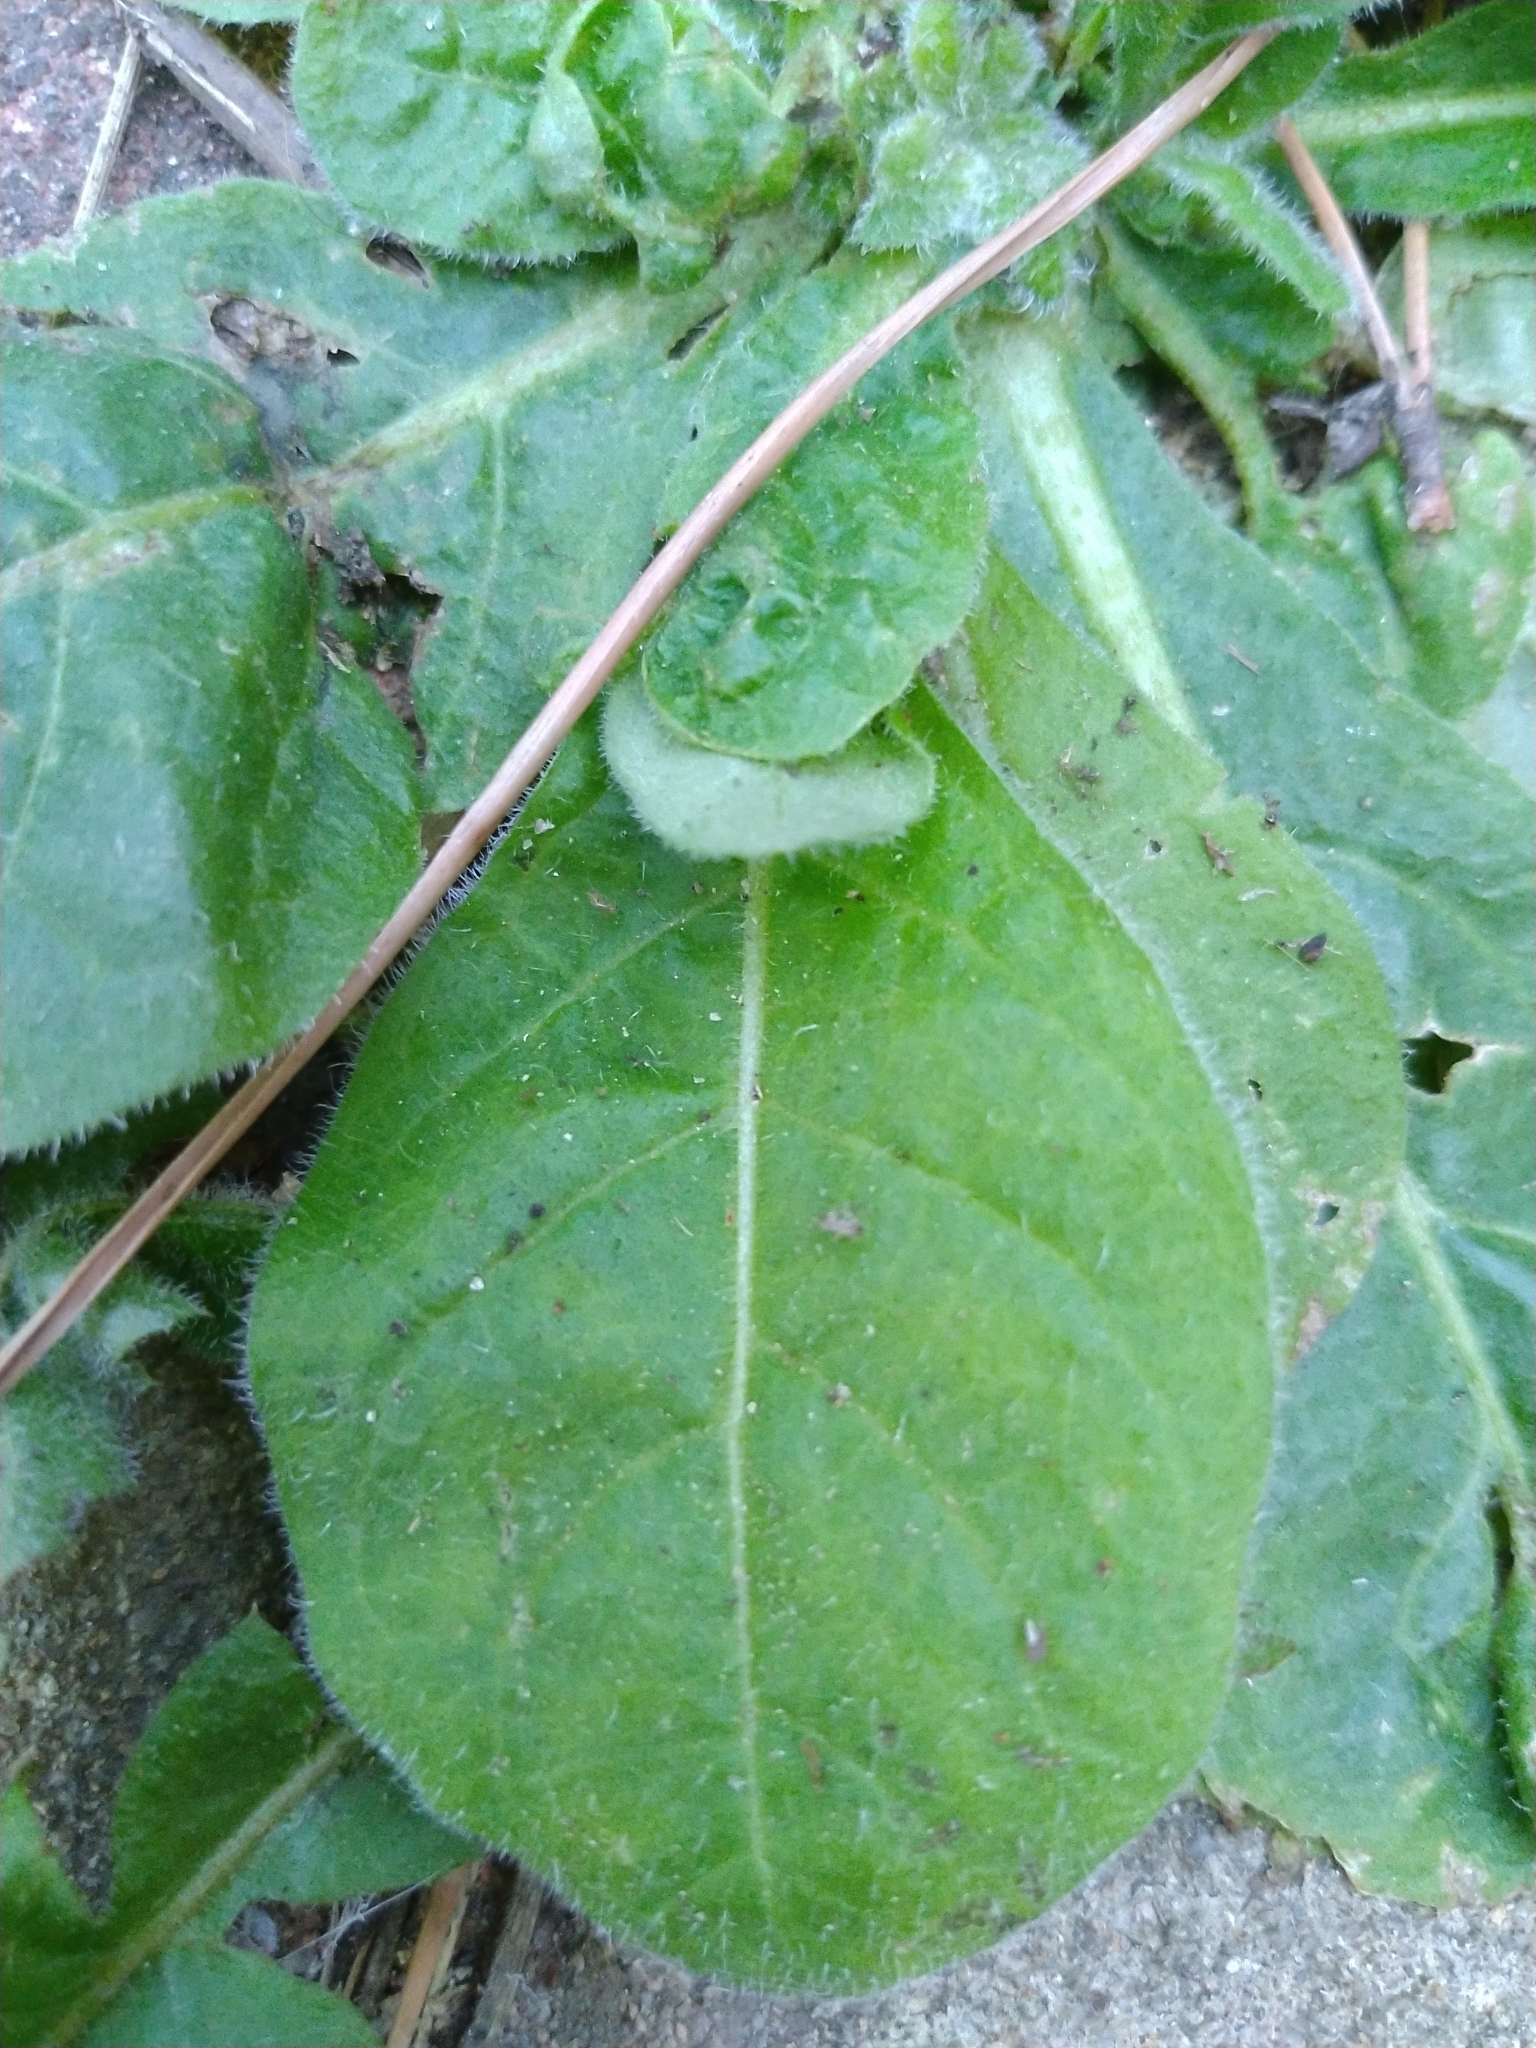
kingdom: Plantae
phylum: Tracheophyta
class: Magnoliopsida
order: Solanales
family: Solanaceae
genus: Nicotiana
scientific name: Nicotiana plumbaginifolia
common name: Tex-mex tobacco
